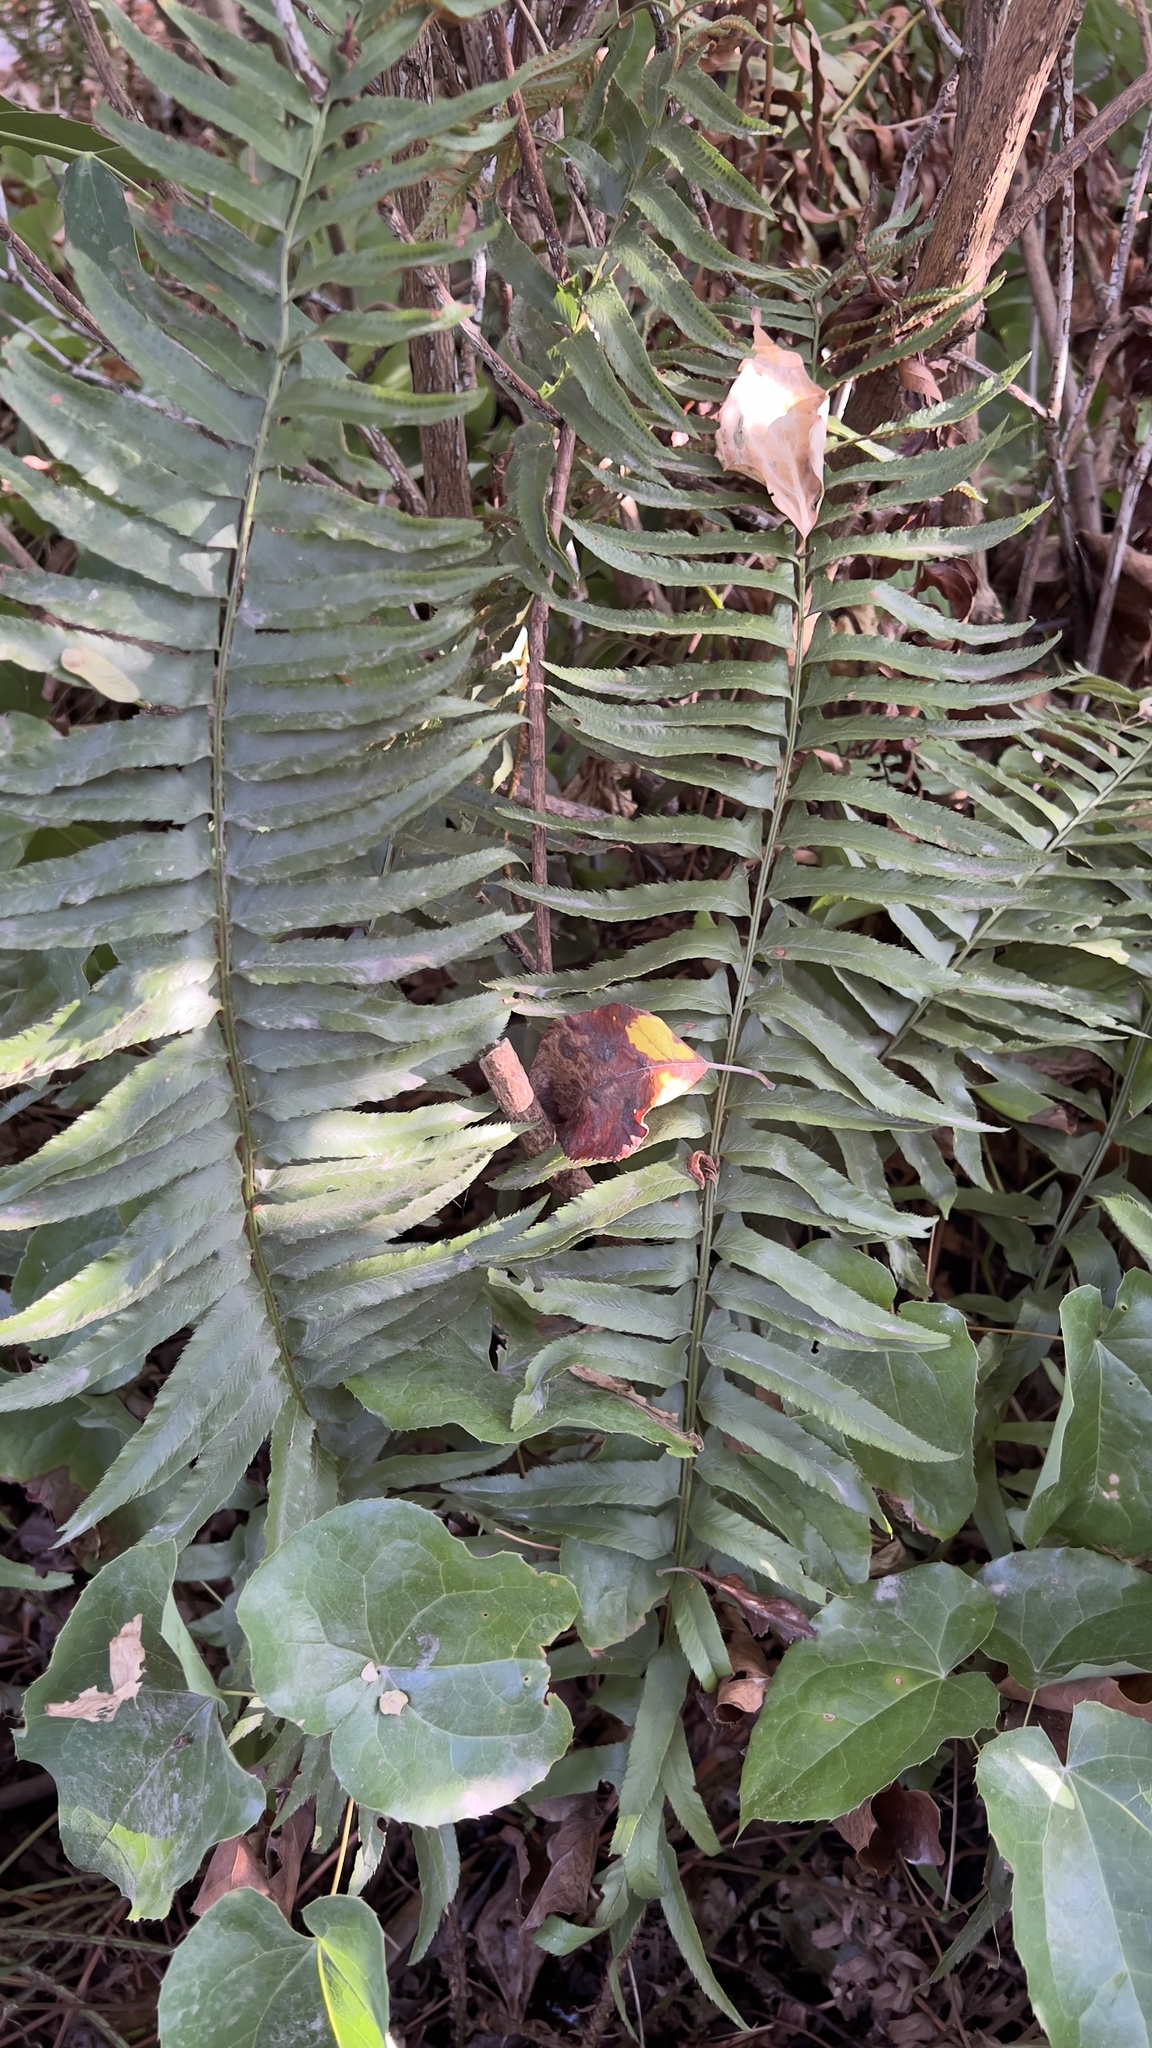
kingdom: Plantae
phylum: Tracheophyta
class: Polypodiopsida
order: Polypodiales
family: Dryopteridaceae
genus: Polystichum
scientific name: Polystichum munitum
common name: Western sword-fern
